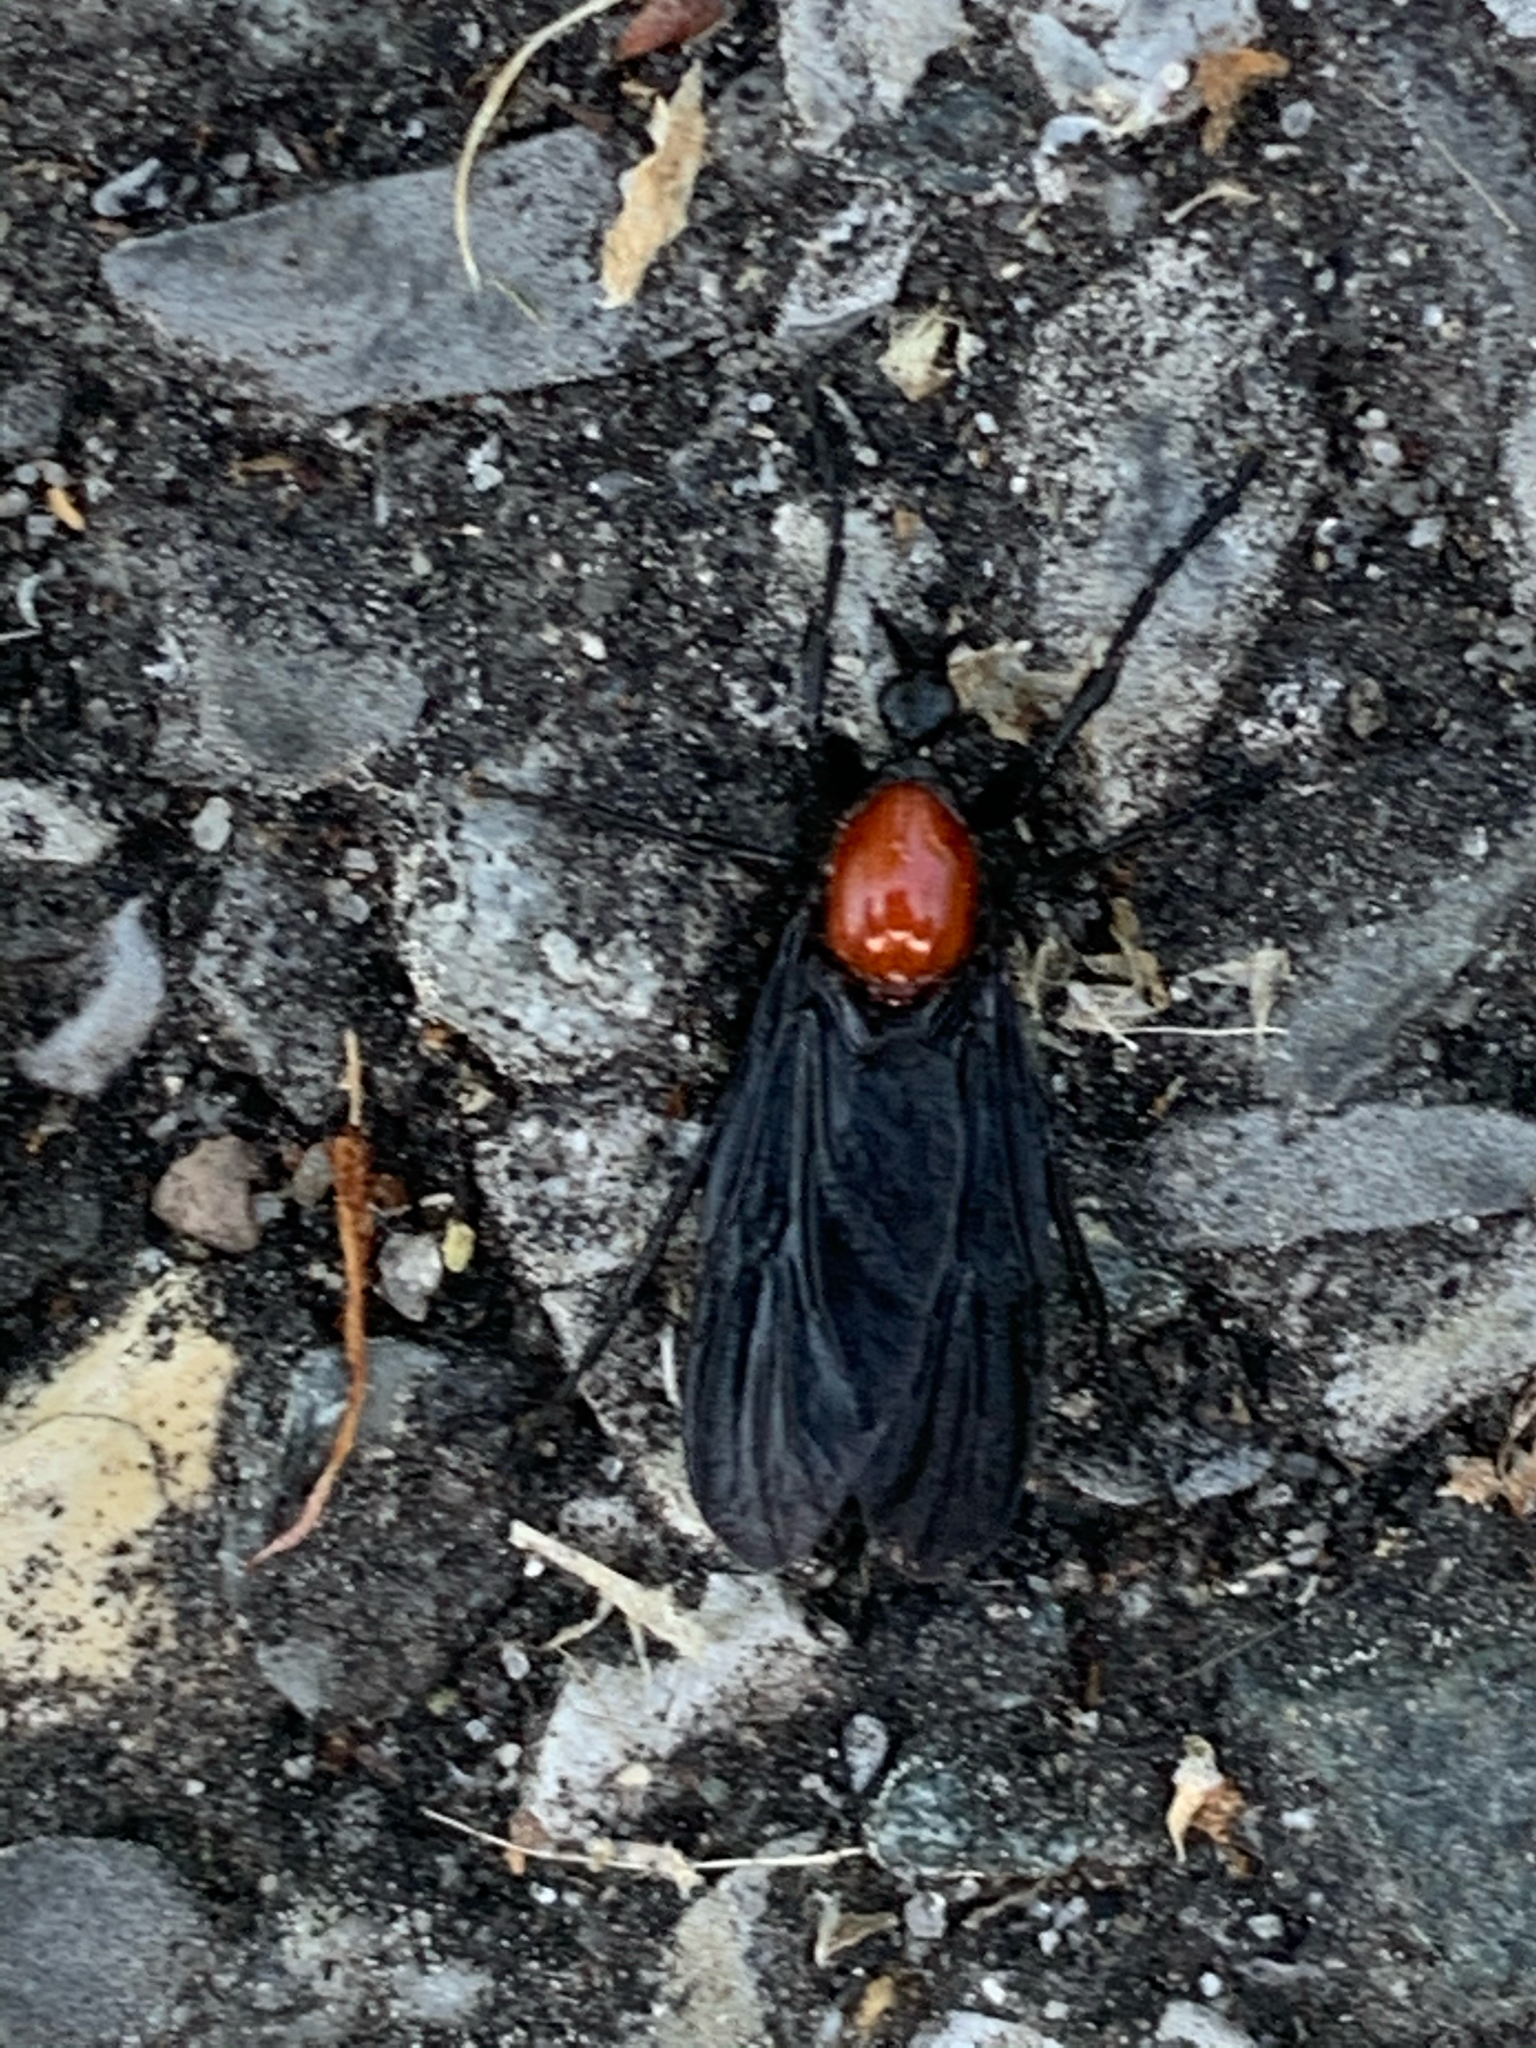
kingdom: Animalia
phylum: Arthropoda
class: Insecta
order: Diptera
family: Bibionidae
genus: Bibio
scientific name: Bibio superfluus
